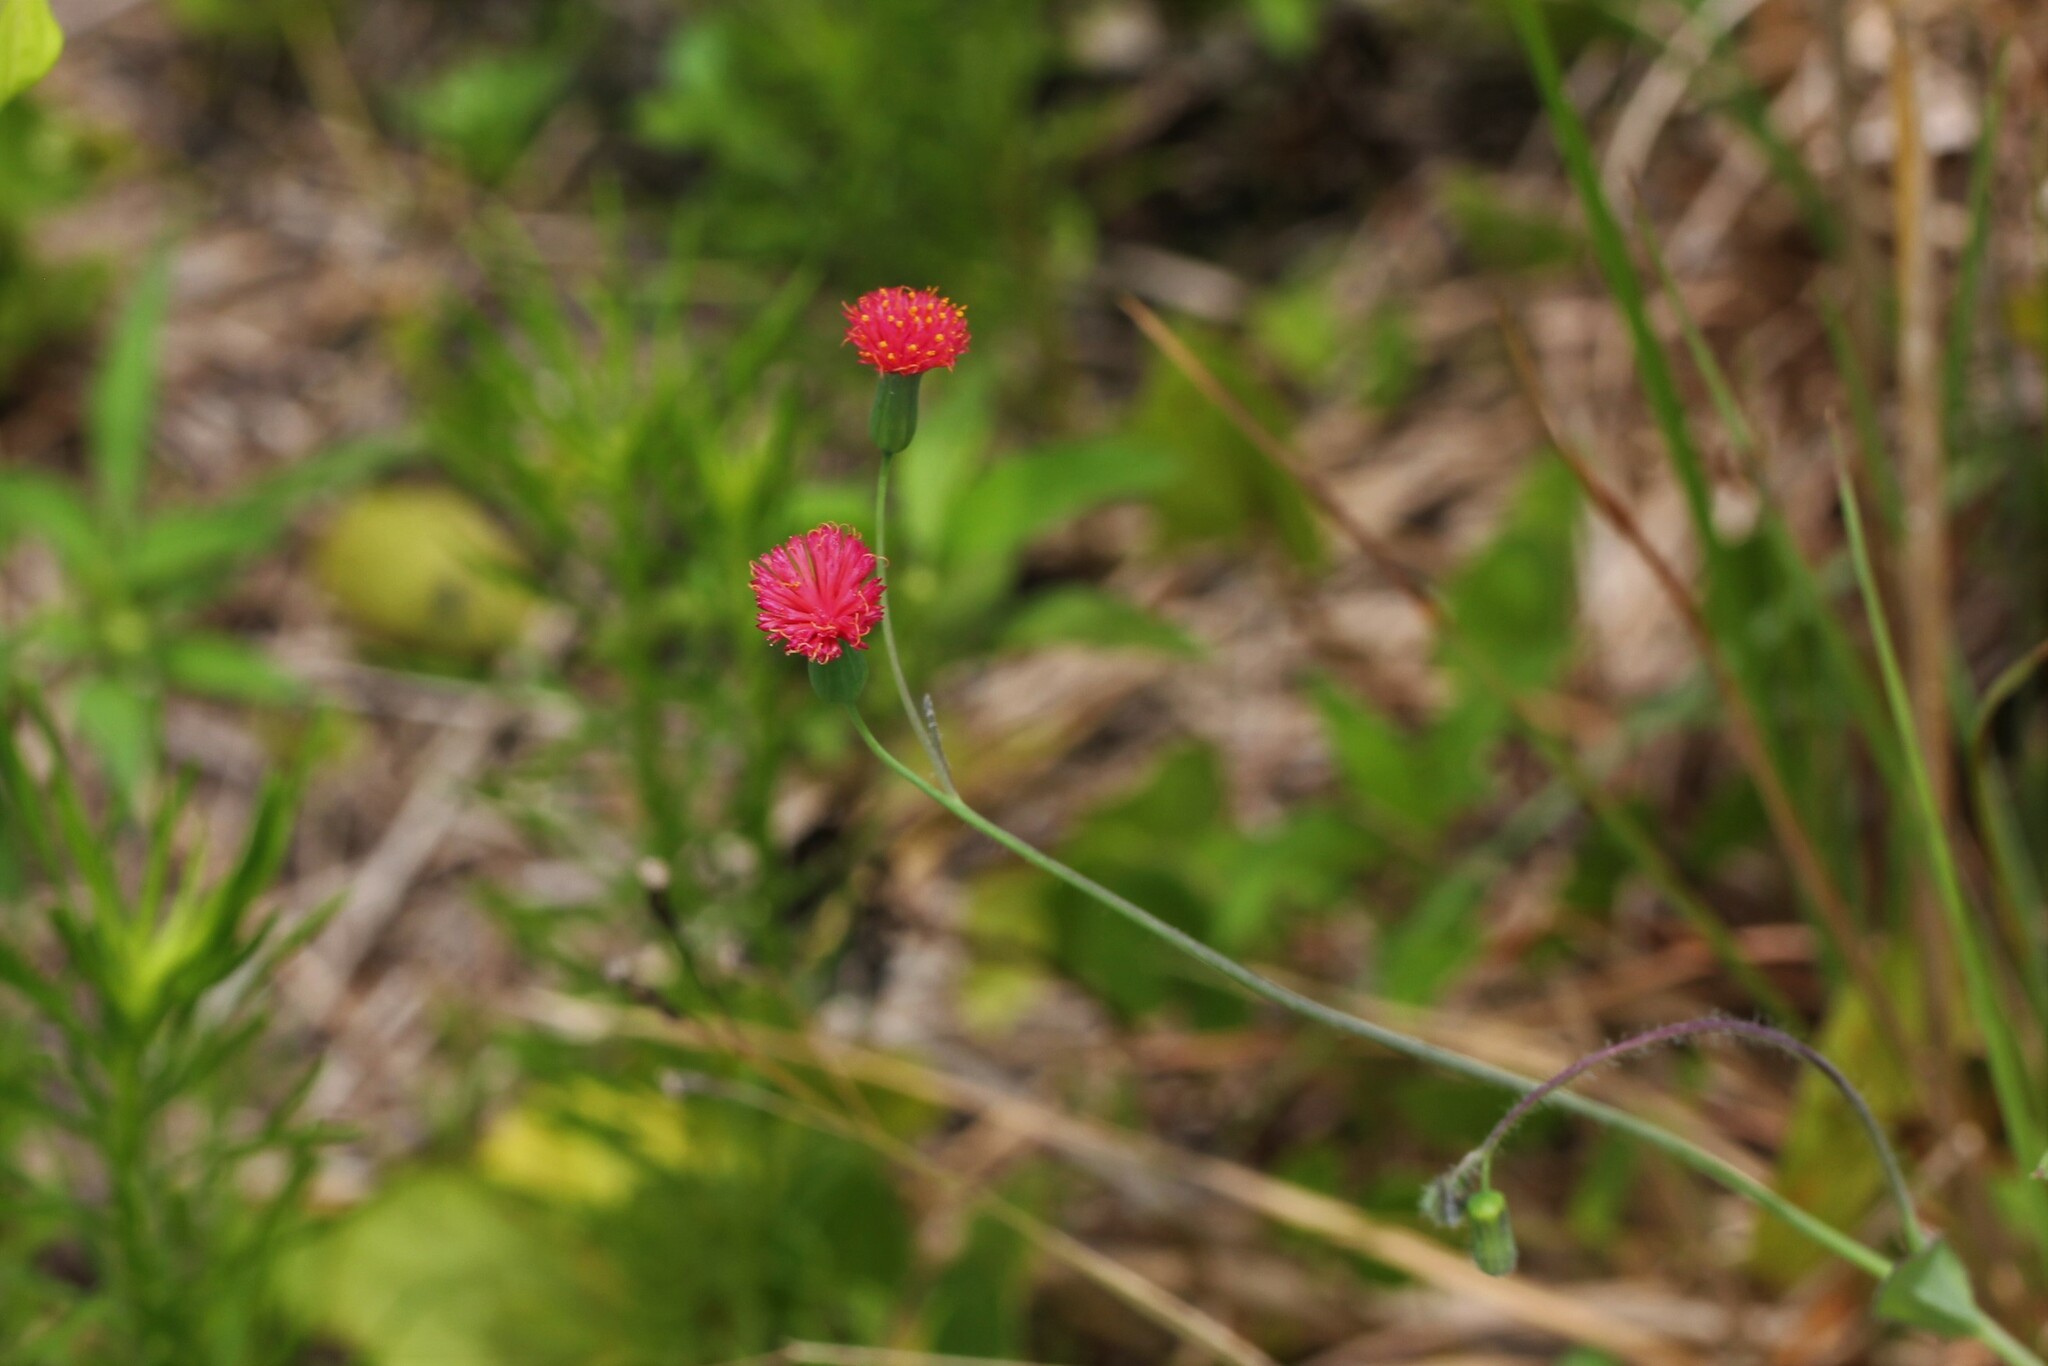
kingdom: Plantae
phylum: Tracheophyta
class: Magnoliopsida
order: Asterales
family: Asteraceae
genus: Emilia
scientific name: Emilia fosbergii
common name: Florida tasselflower
